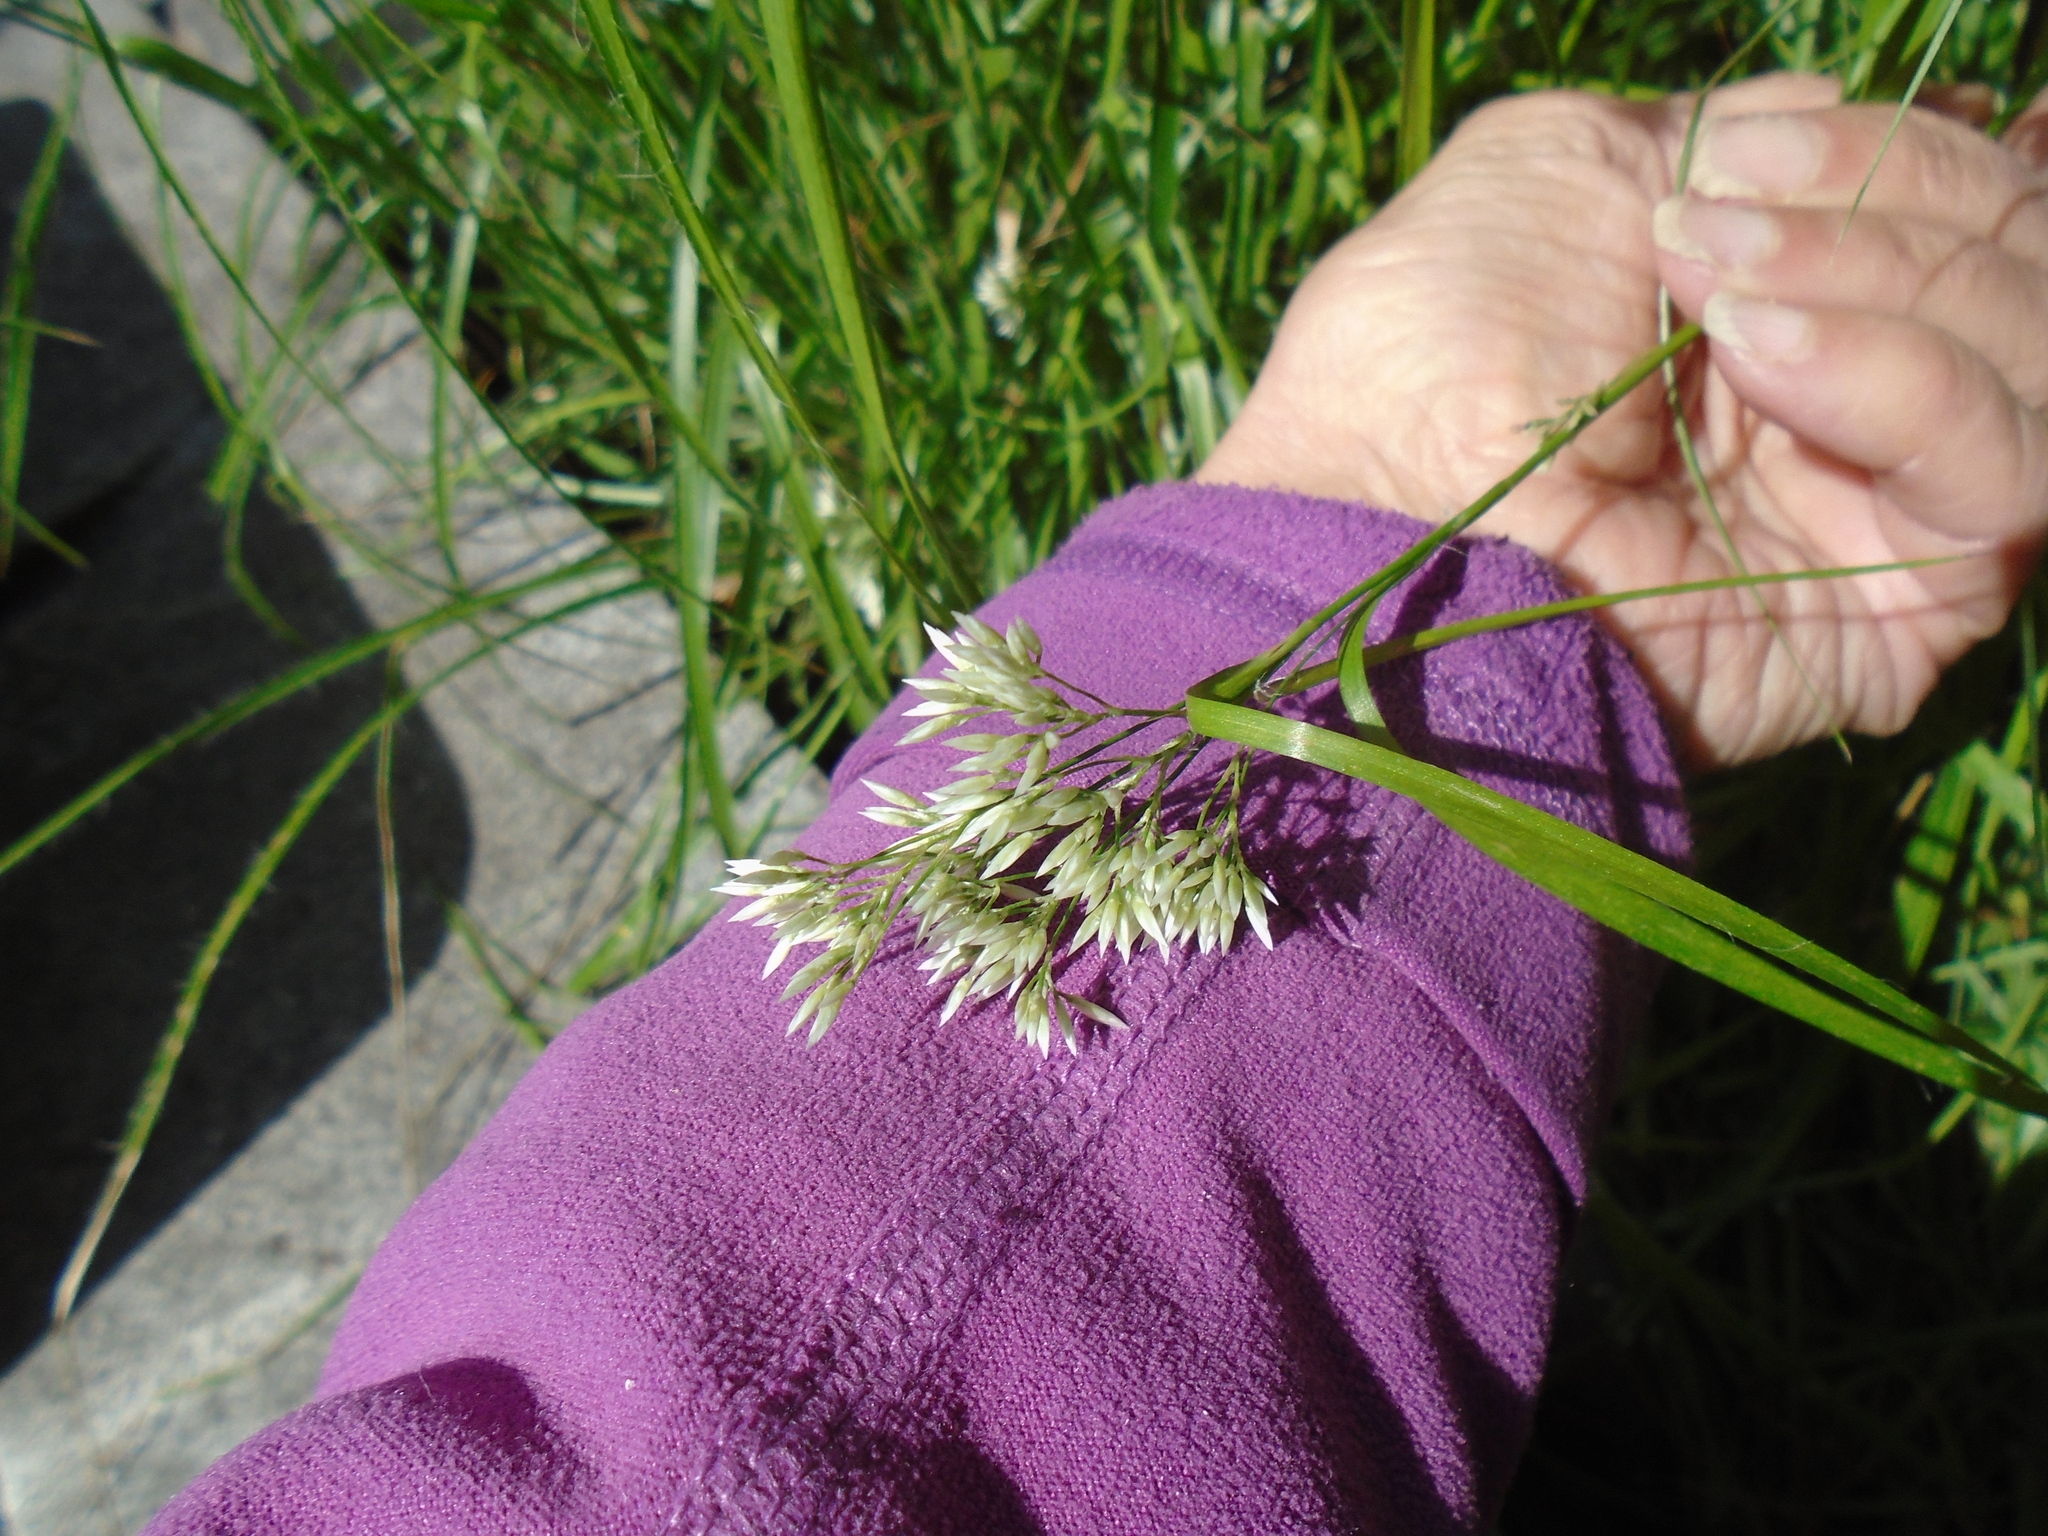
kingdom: Plantae
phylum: Tracheophyta
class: Liliopsida
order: Poales
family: Juncaceae
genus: Luzula
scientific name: Luzula nivea
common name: Snow-white wood-rush
